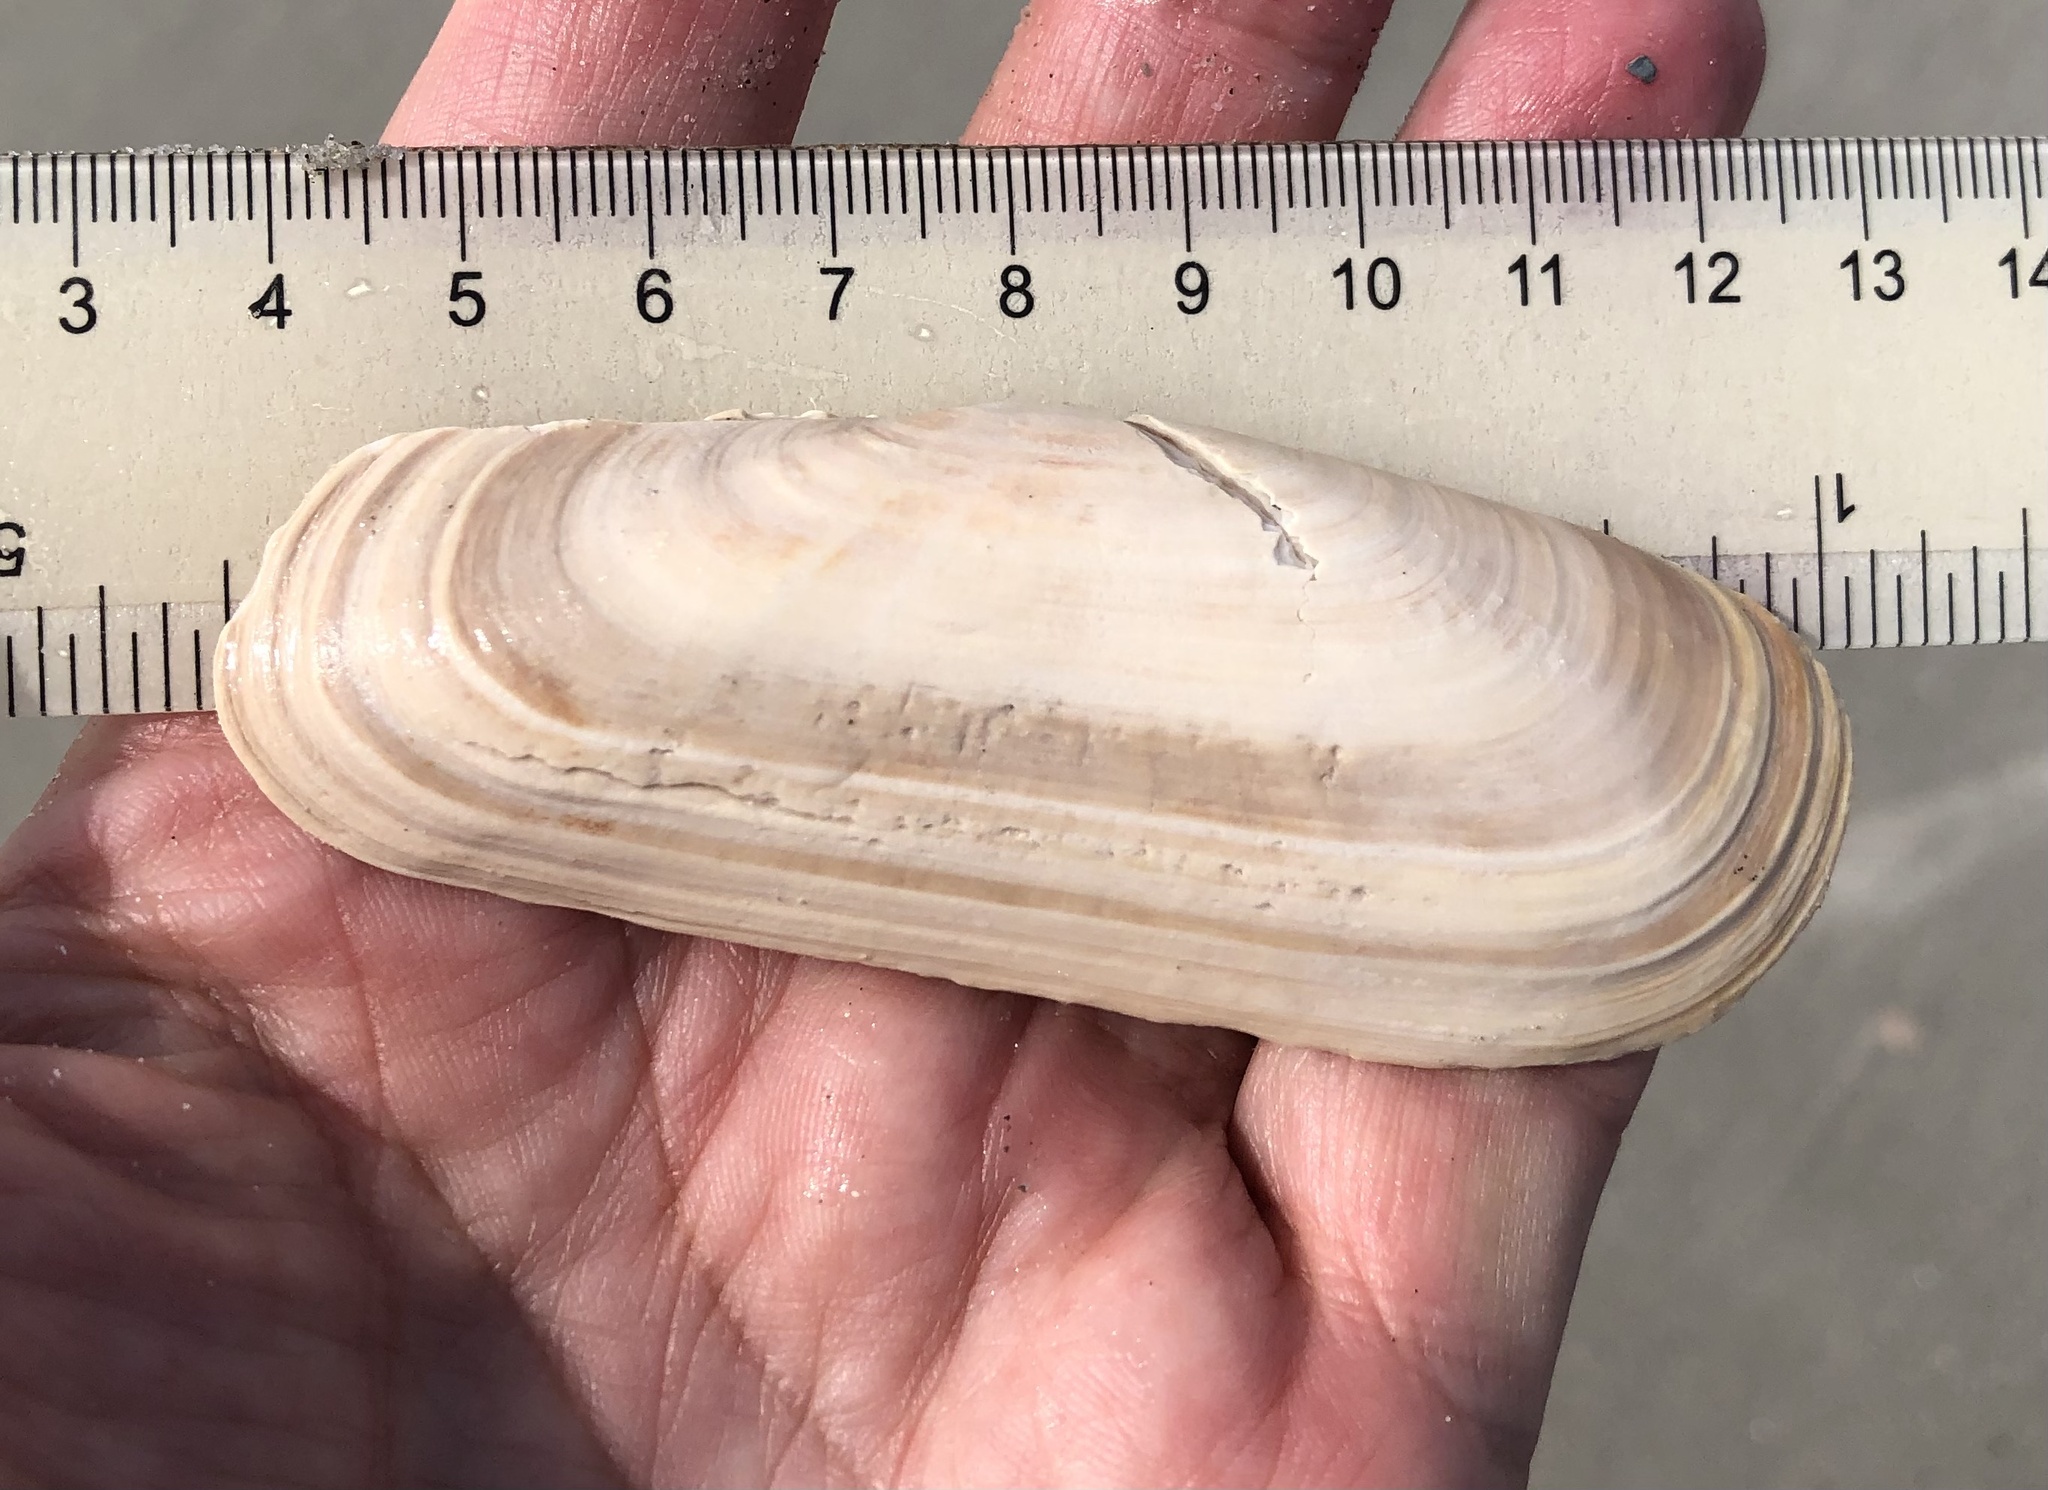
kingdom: Animalia
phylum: Mollusca
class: Bivalvia
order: Cardiida
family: Solecurtidae
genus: Tagelus
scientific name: Tagelus plebeius
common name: Stout tagelus
